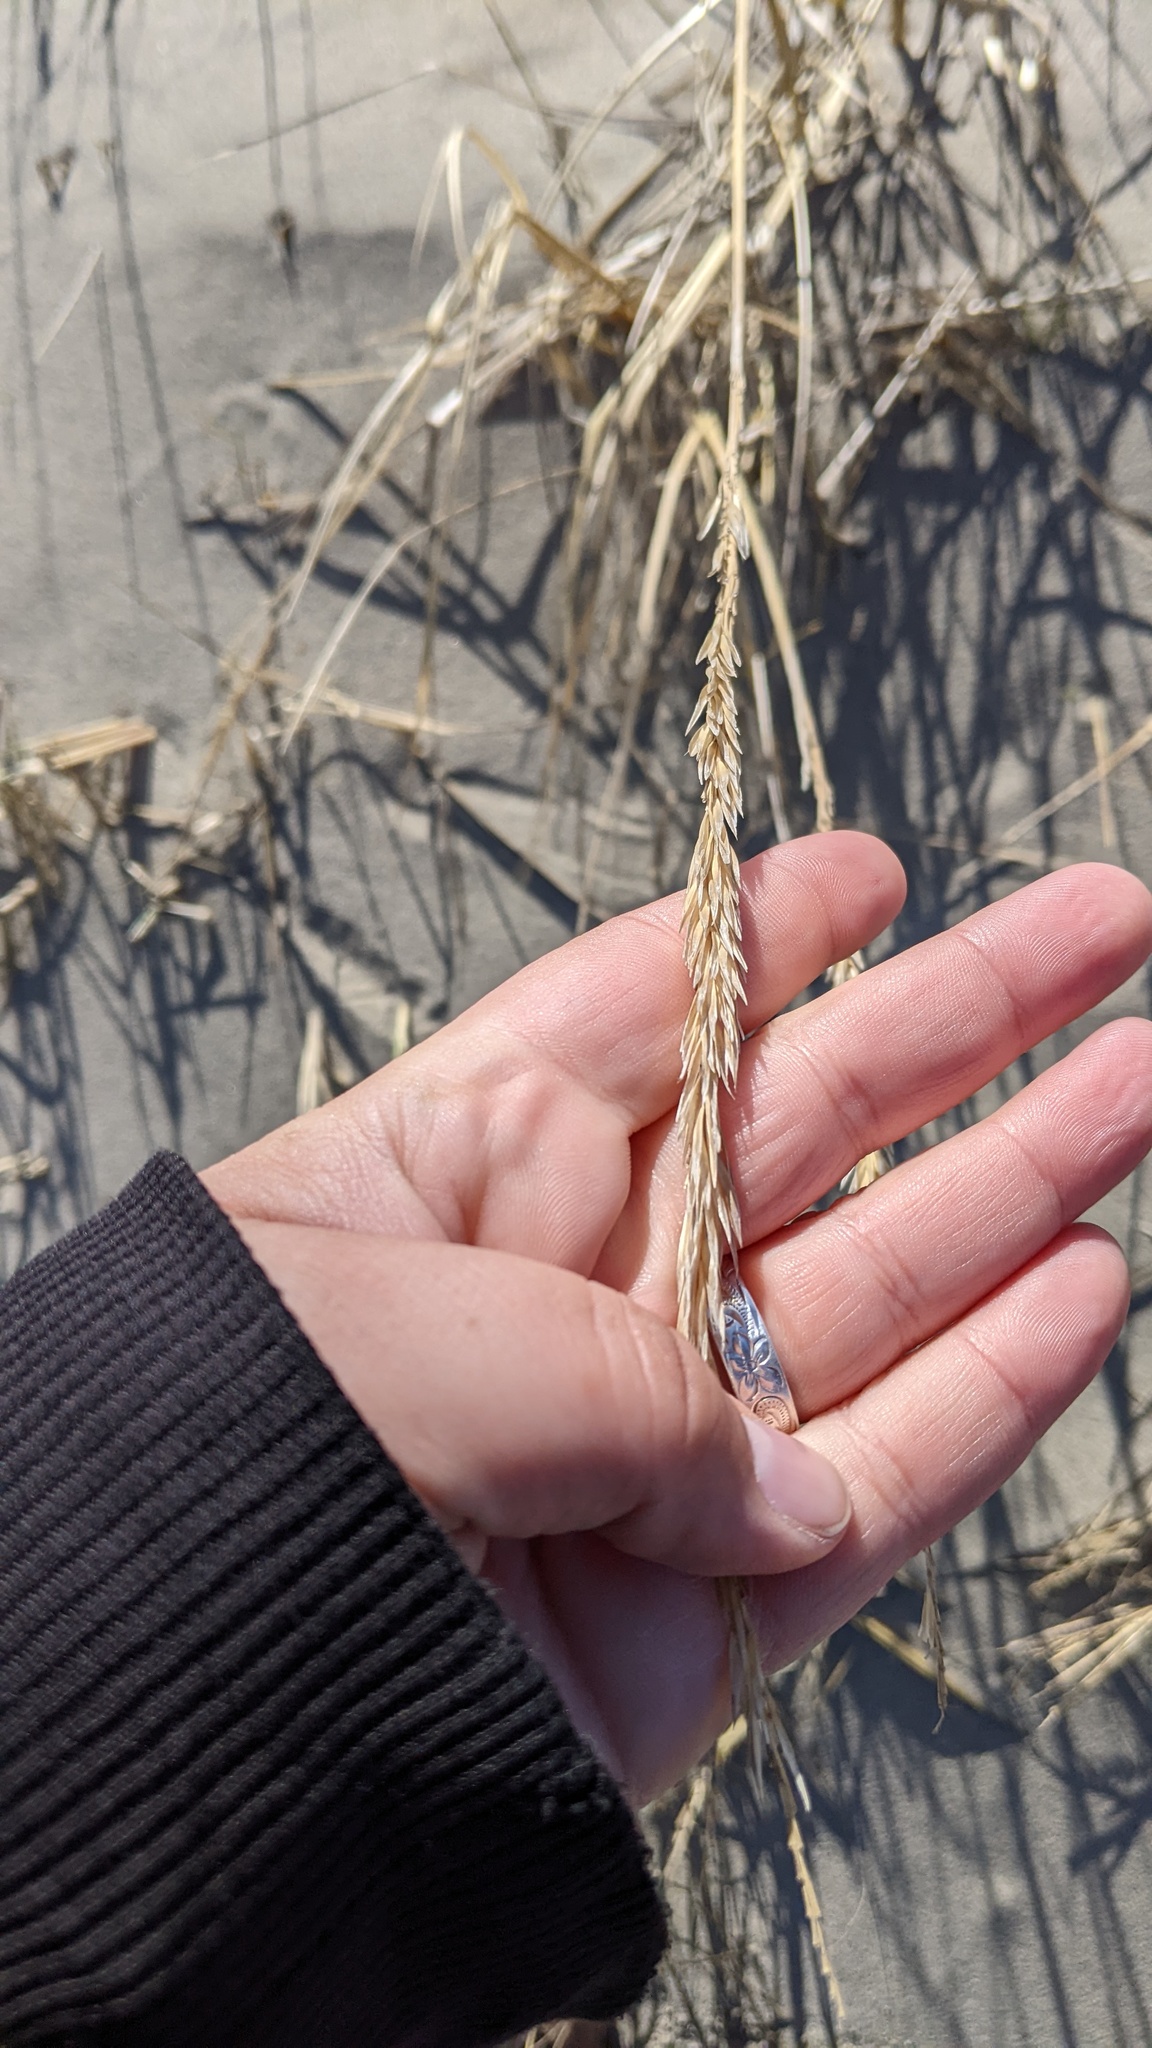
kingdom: Plantae
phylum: Tracheophyta
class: Liliopsida
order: Poales
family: Poaceae
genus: Calamagrostis
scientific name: Calamagrostis breviligulata
